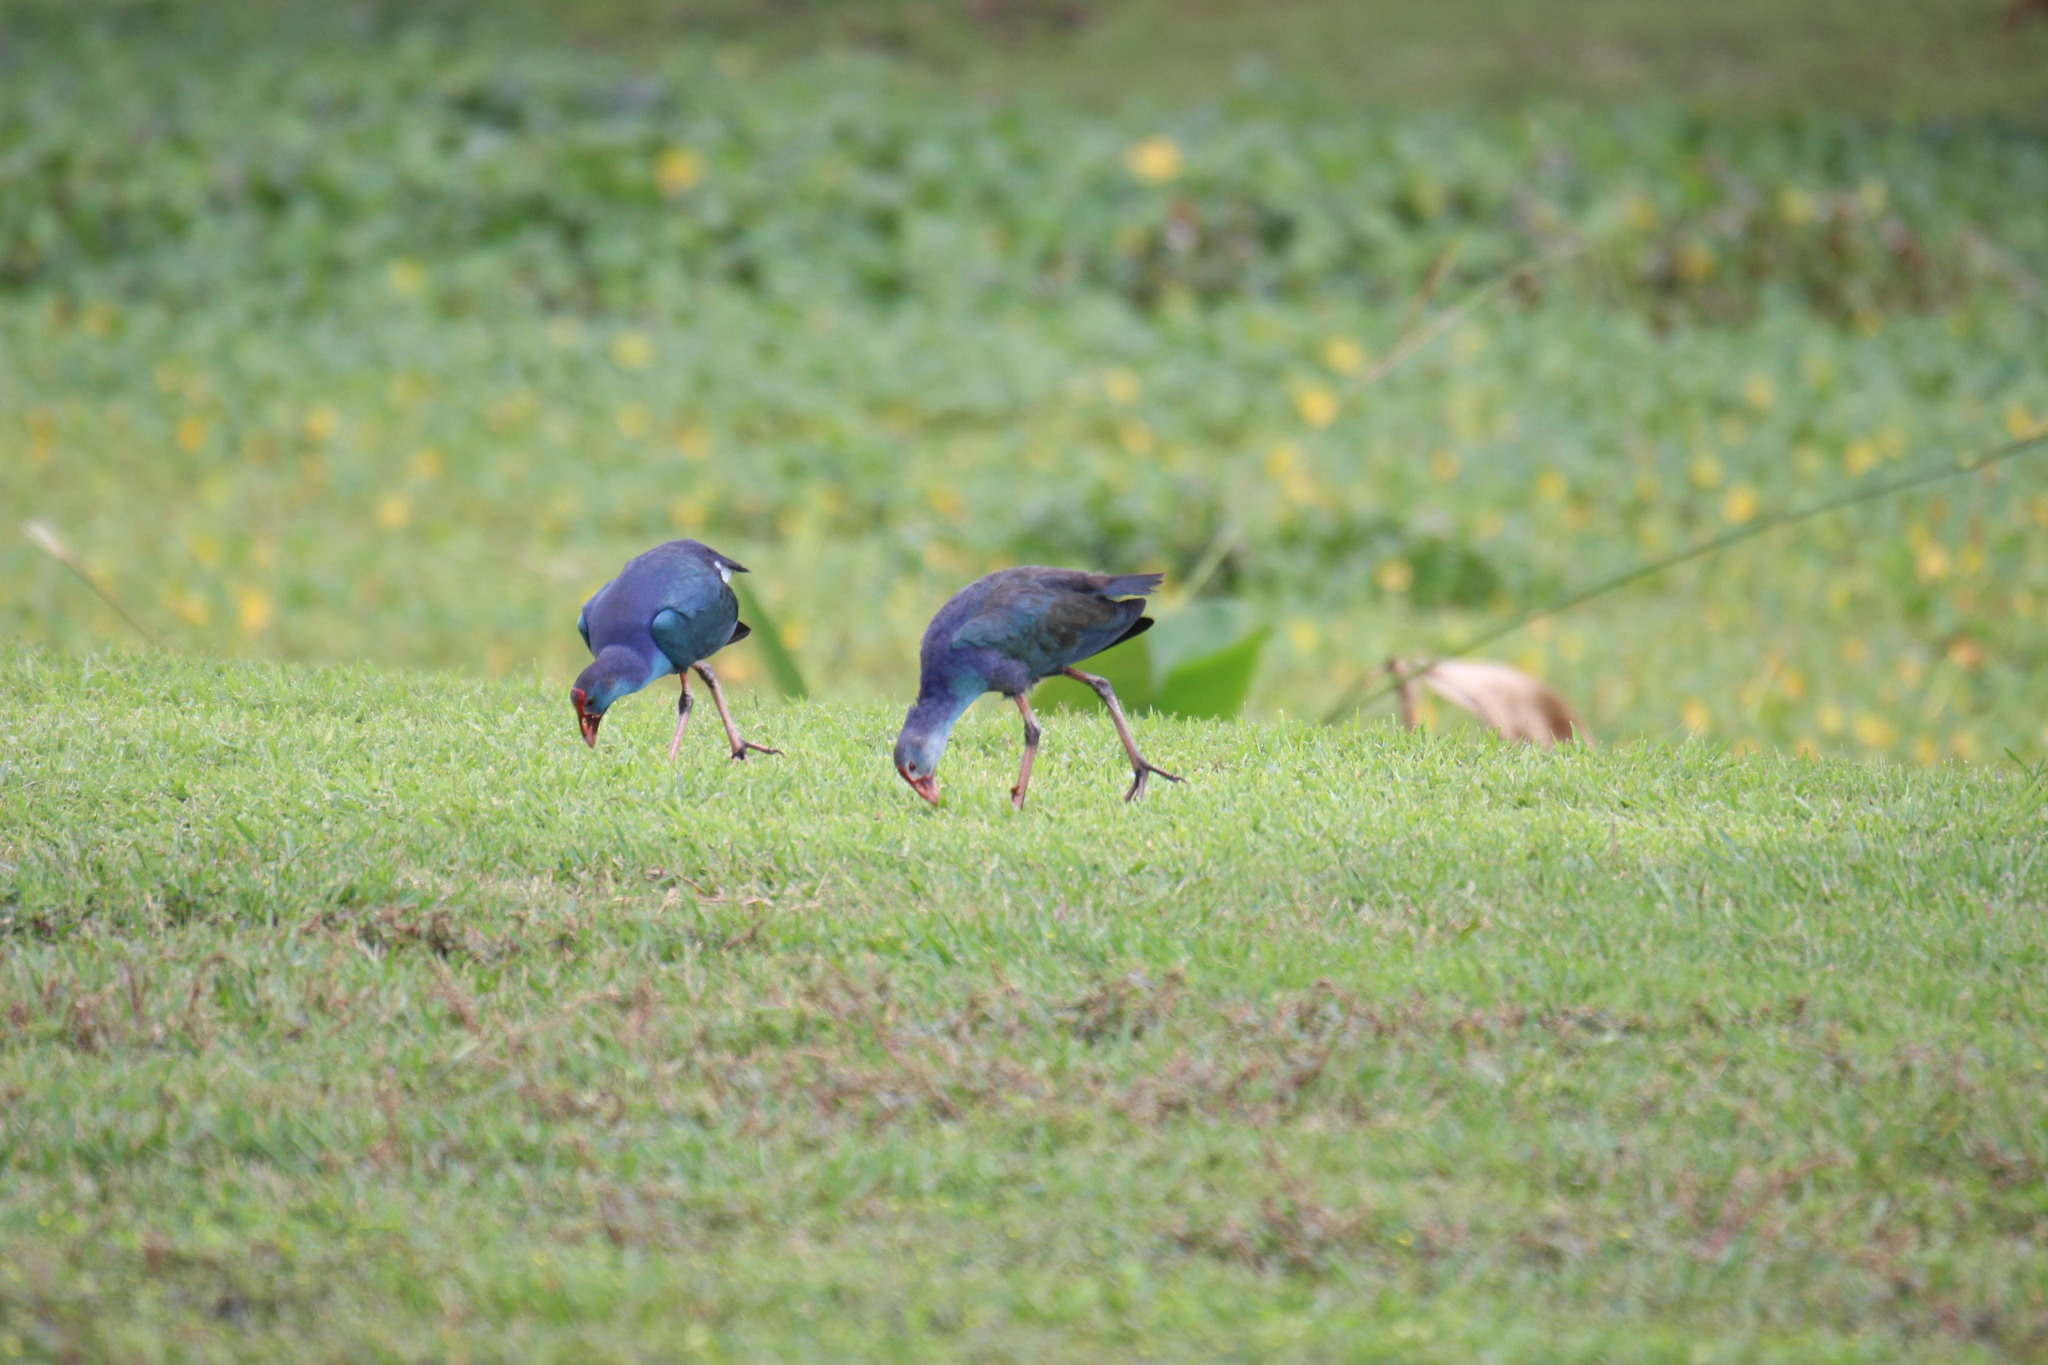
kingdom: Animalia
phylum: Chordata
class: Aves
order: Gruiformes
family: Rallidae
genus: Porphyrio
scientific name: Porphyrio porphyrio
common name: Purple swamphen
